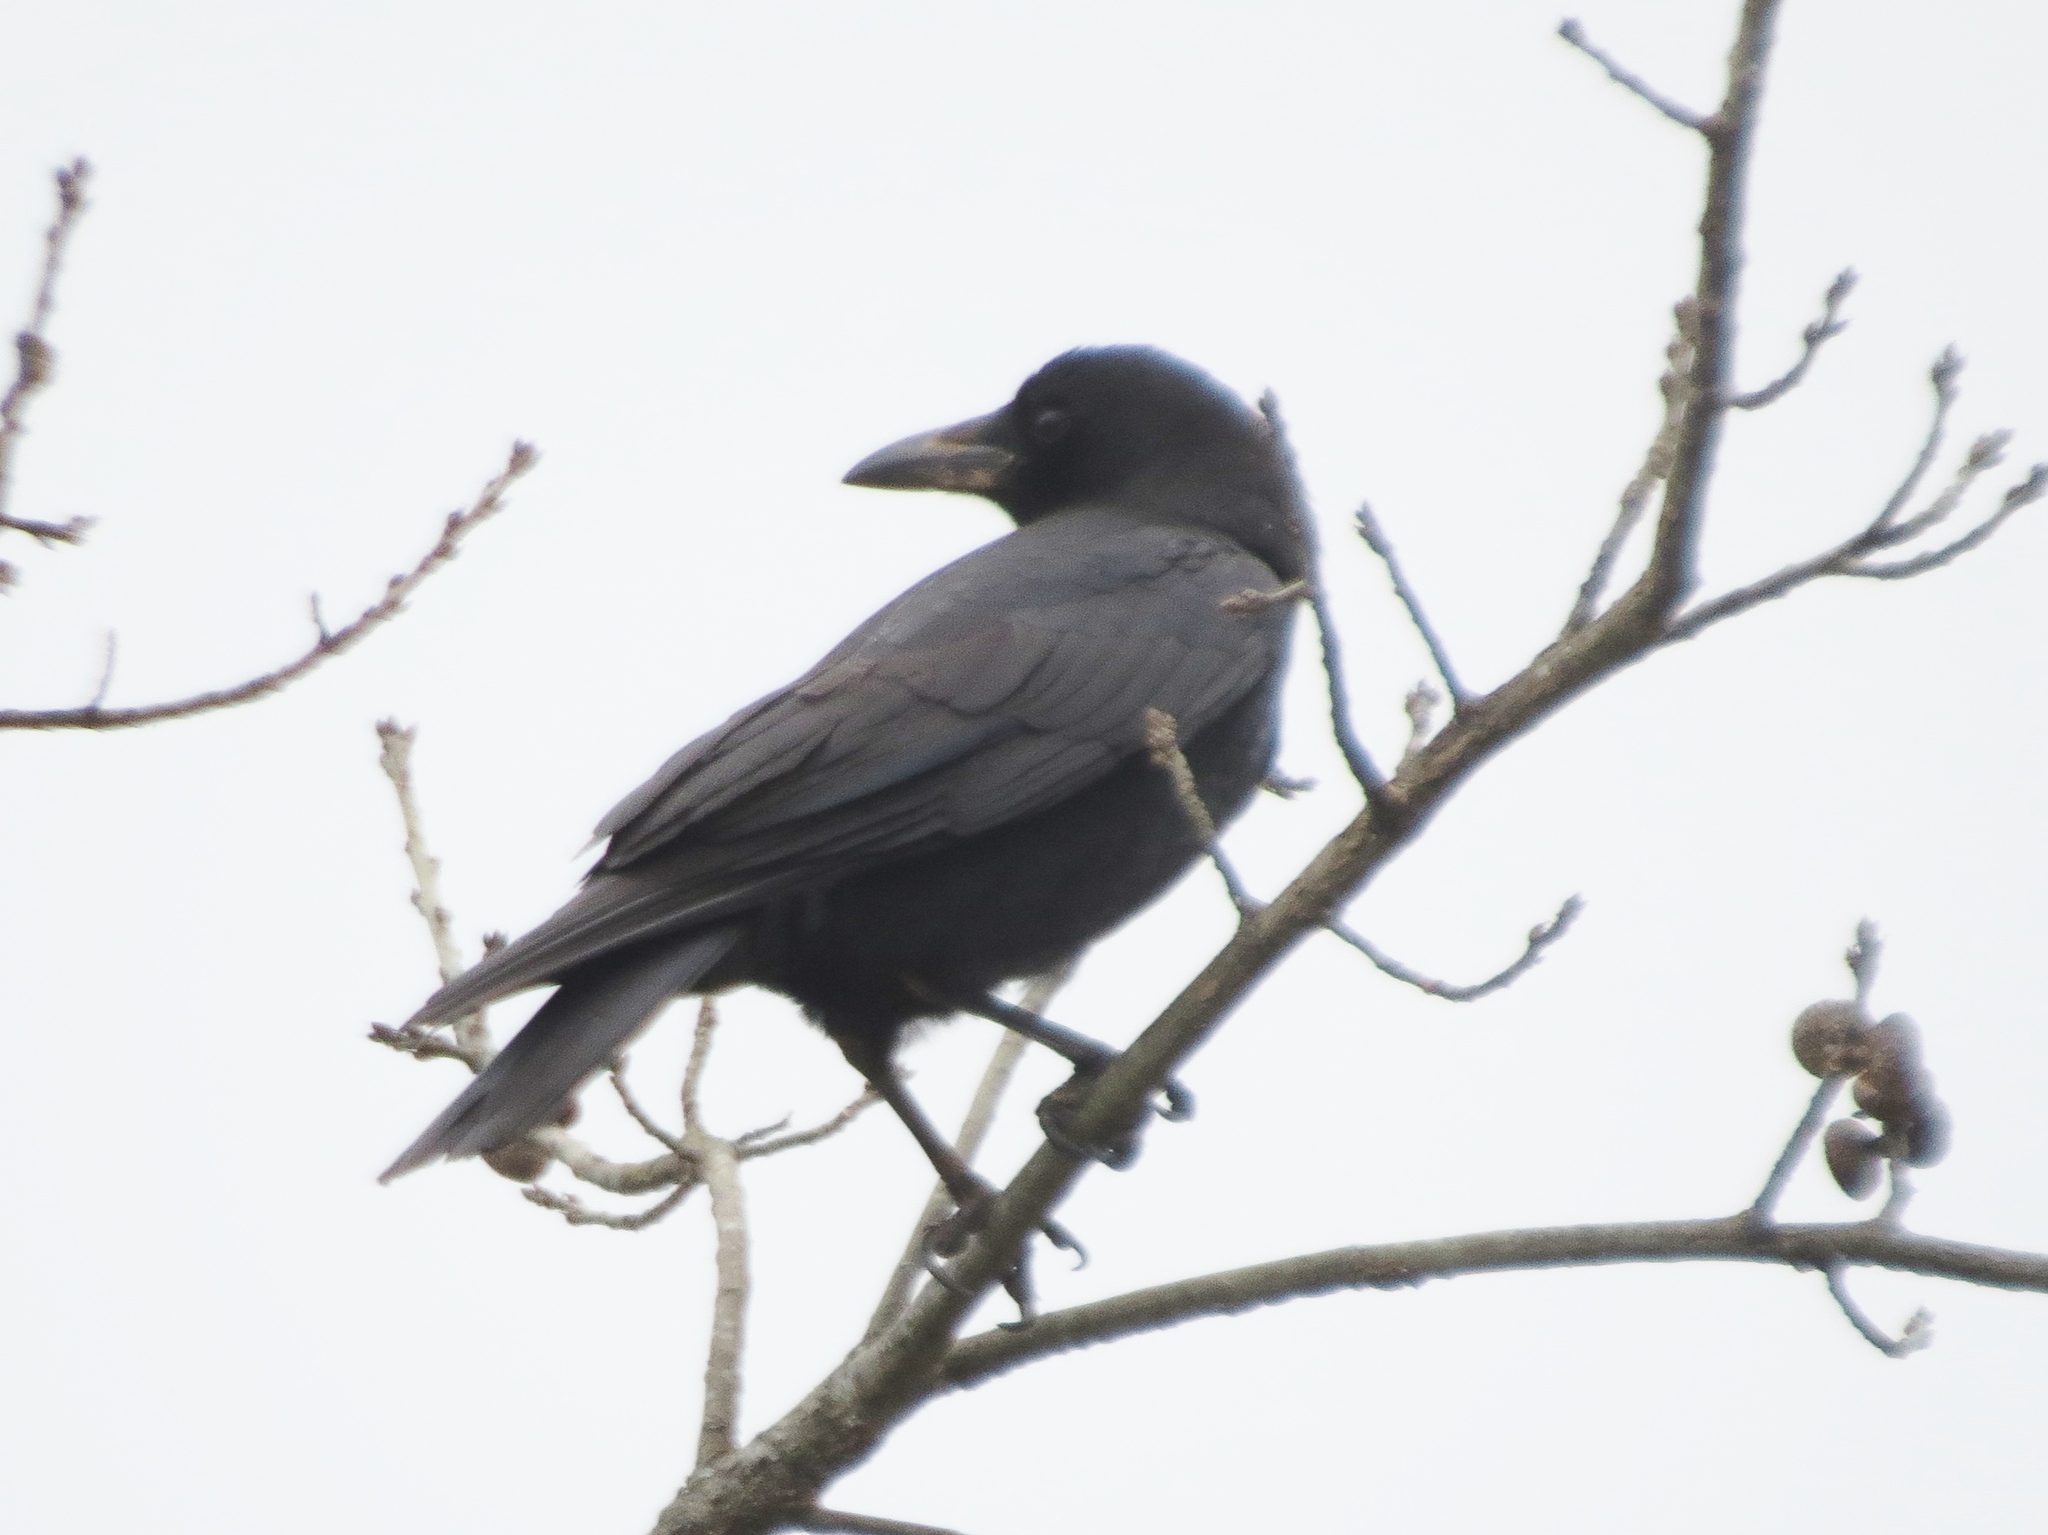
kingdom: Animalia
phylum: Chordata
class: Aves
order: Passeriformes
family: Corvidae
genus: Corvus
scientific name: Corvus brachyrhynchos
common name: American crow
